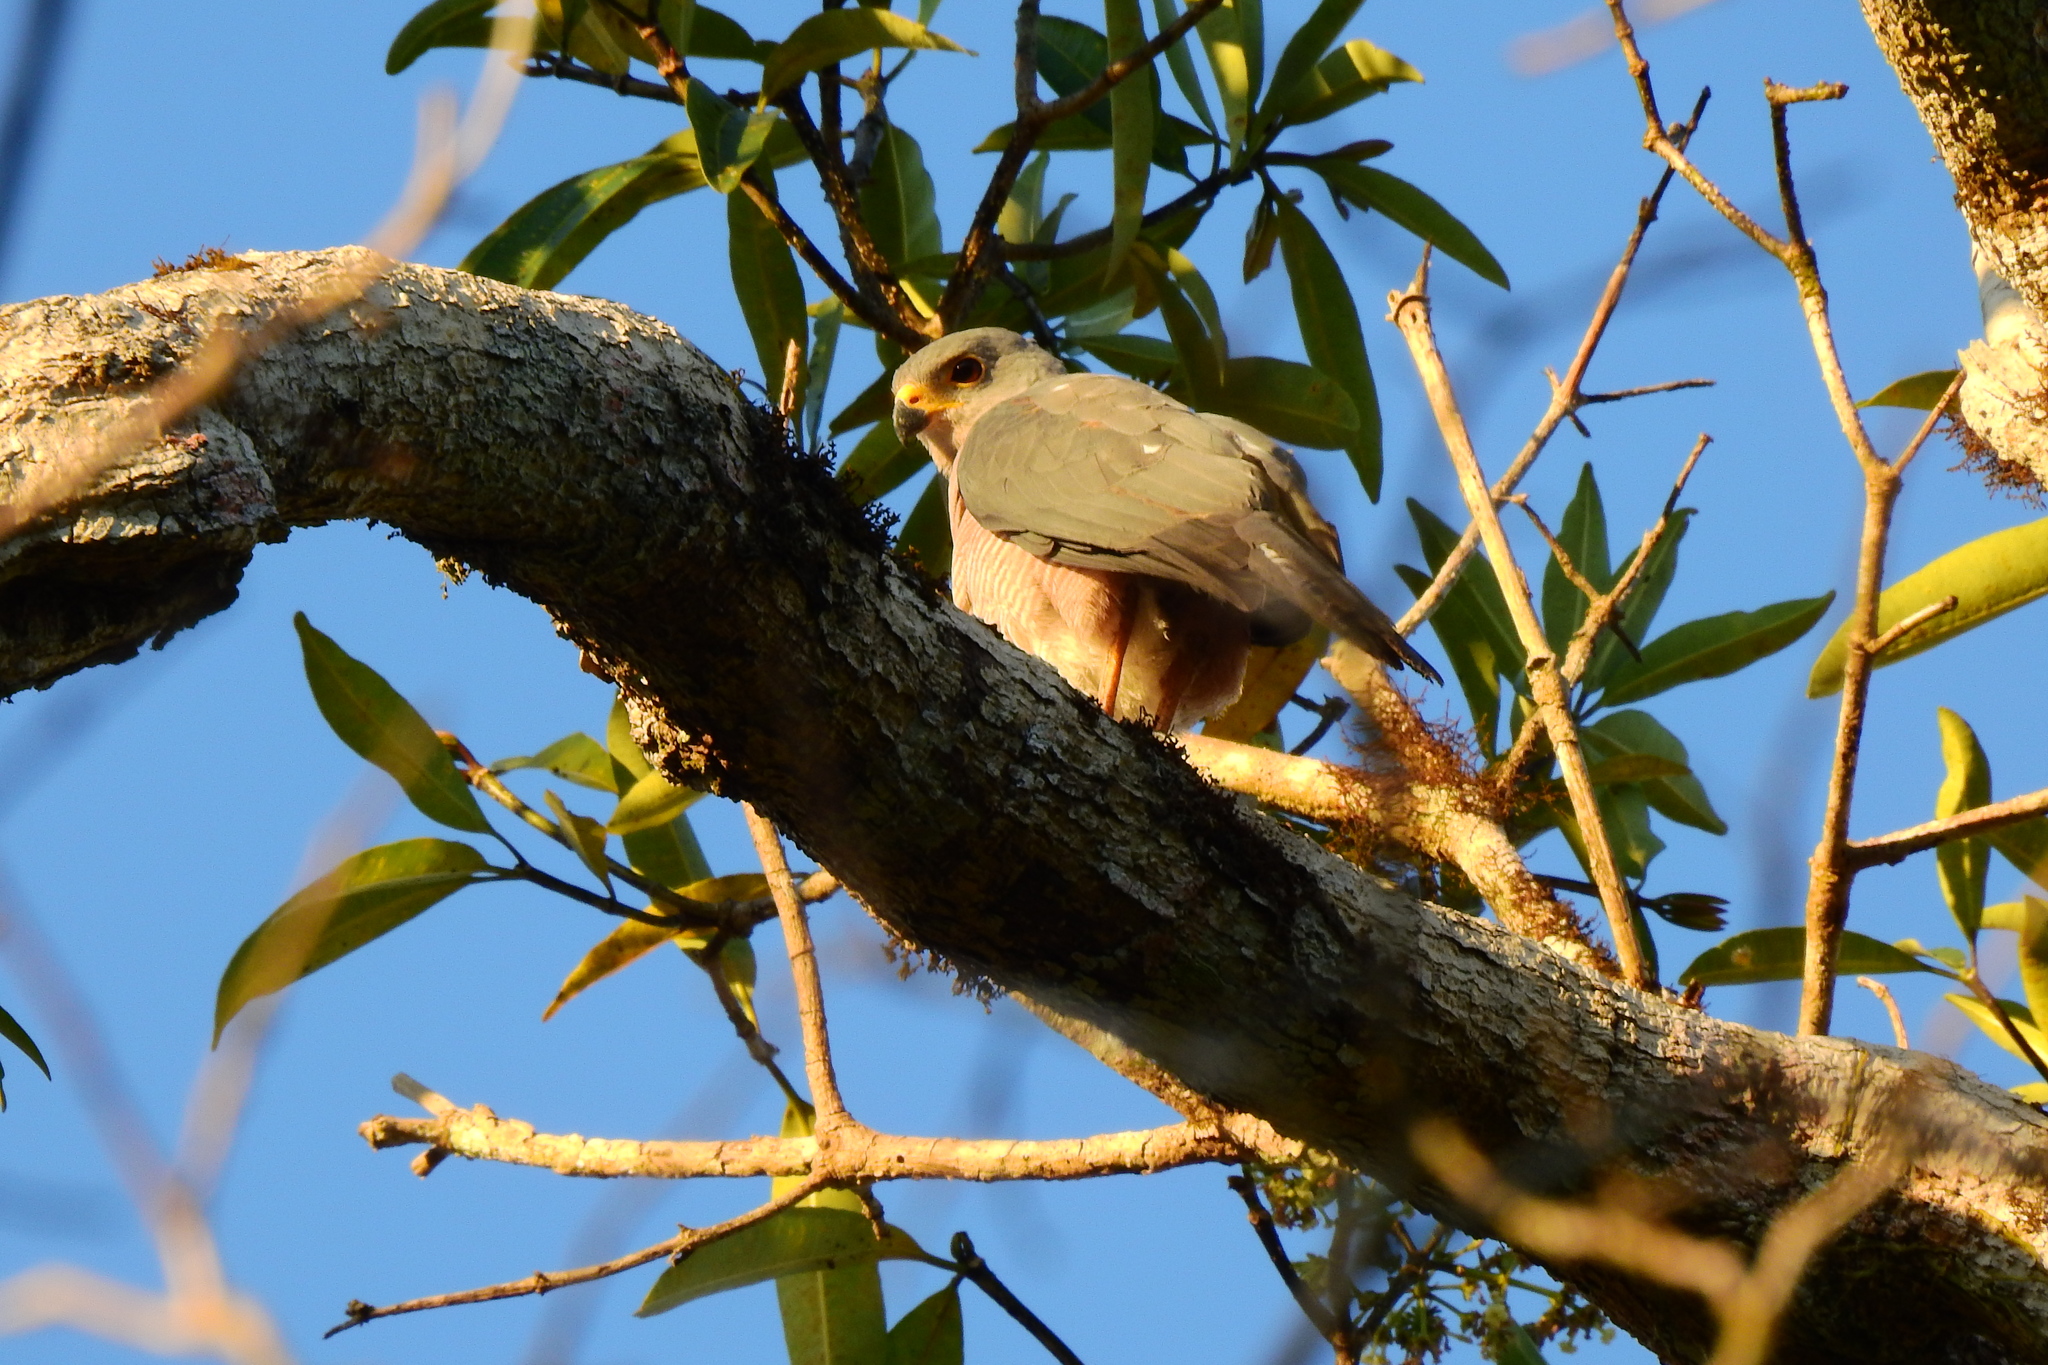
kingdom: Animalia
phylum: Chordata
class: Aves
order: Accipitriformes
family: Accipitridae
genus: Accipiter
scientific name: Accipiter hiogaster
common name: Variable goshawk
